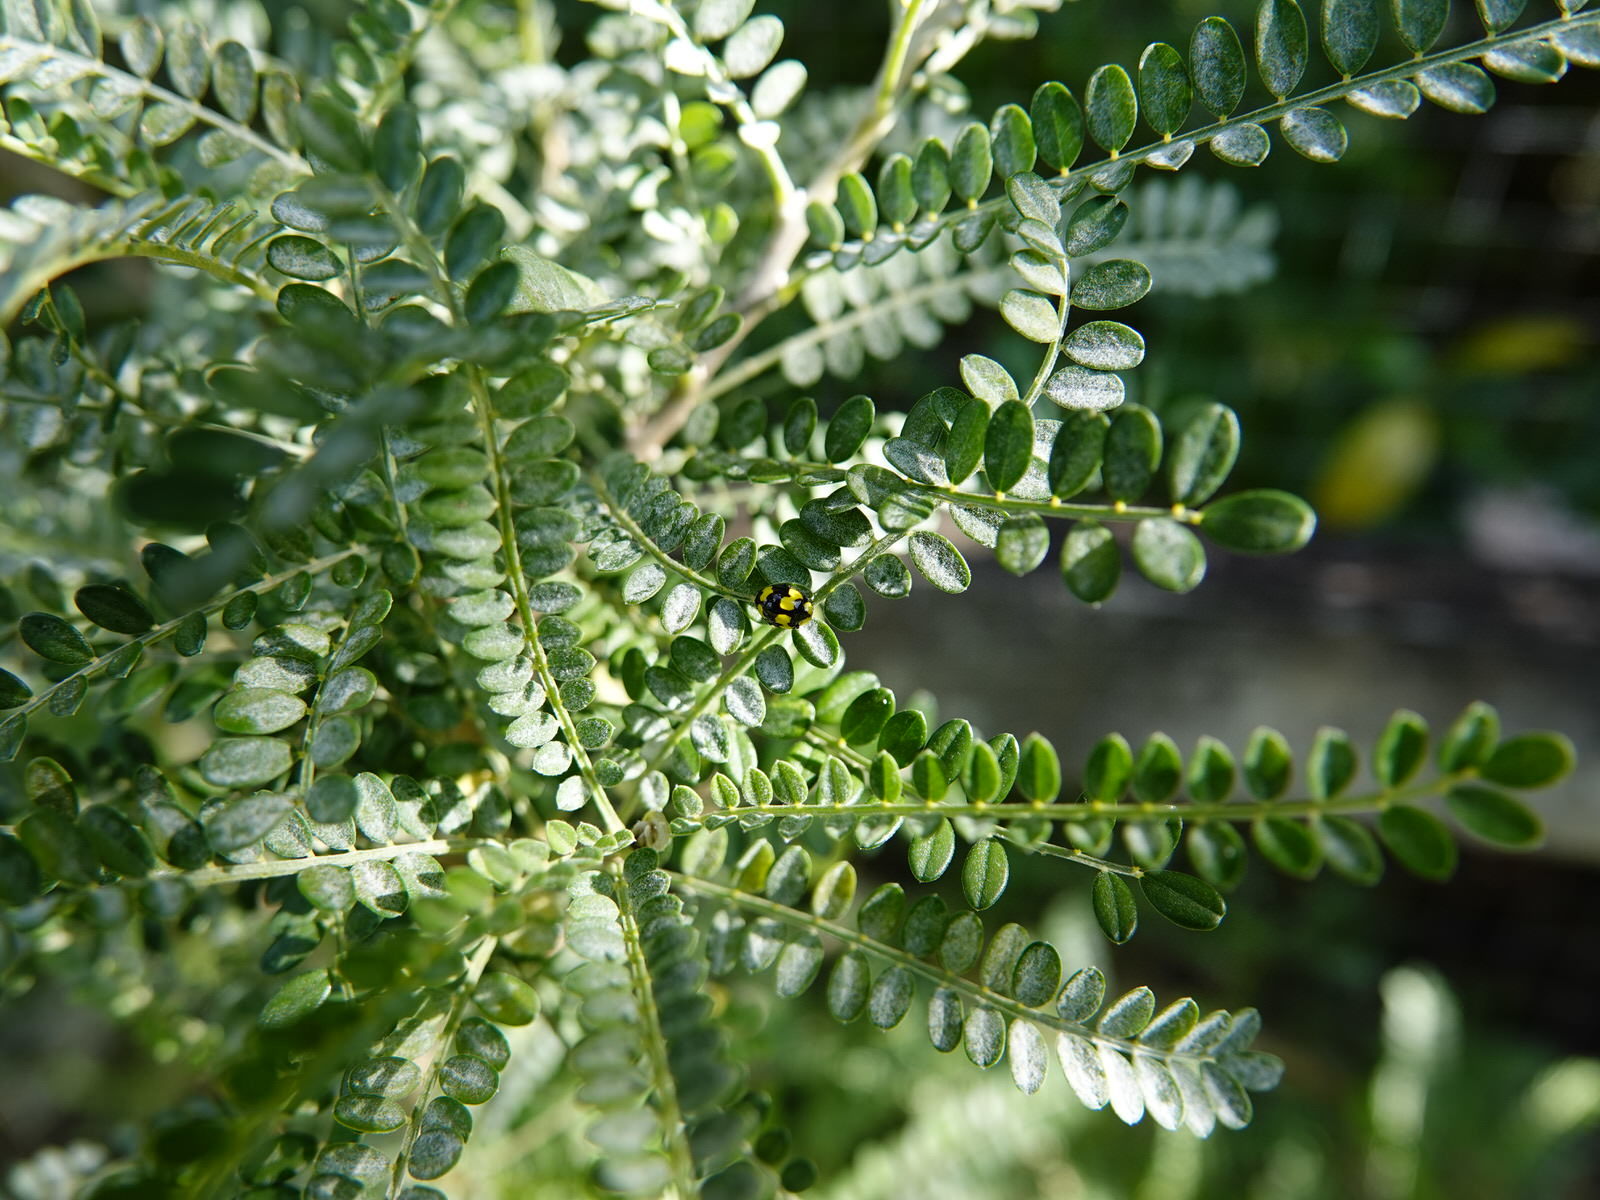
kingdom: Animalia
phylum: Arthropoda
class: Insecta
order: Coleoptera
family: Coccinellidae
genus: Illeis
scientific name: Illeis galbula
